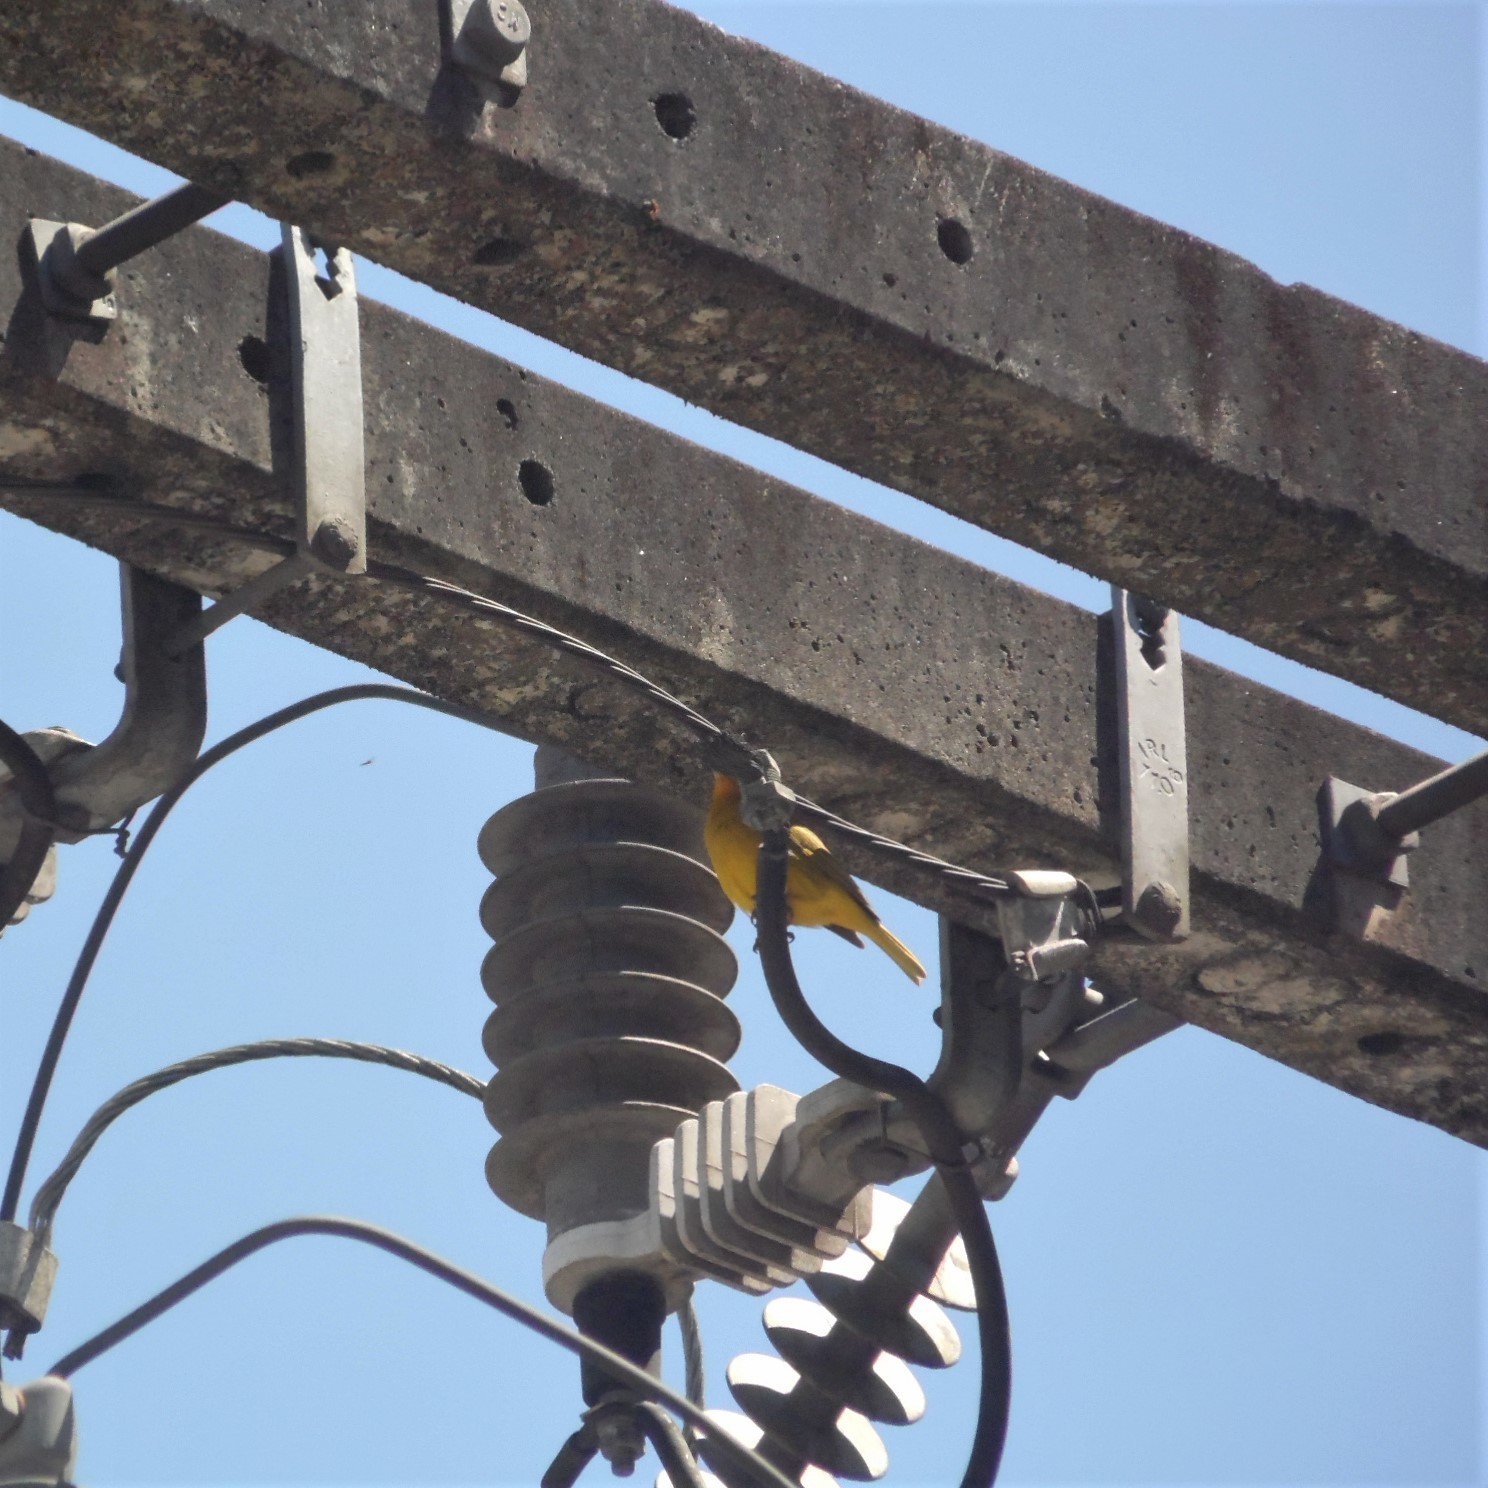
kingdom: Animalia
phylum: Chordata
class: Aves
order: Passeriformes
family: Thraupidae
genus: Sicalis
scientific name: Sicalis flaveola
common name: Saffron finch
